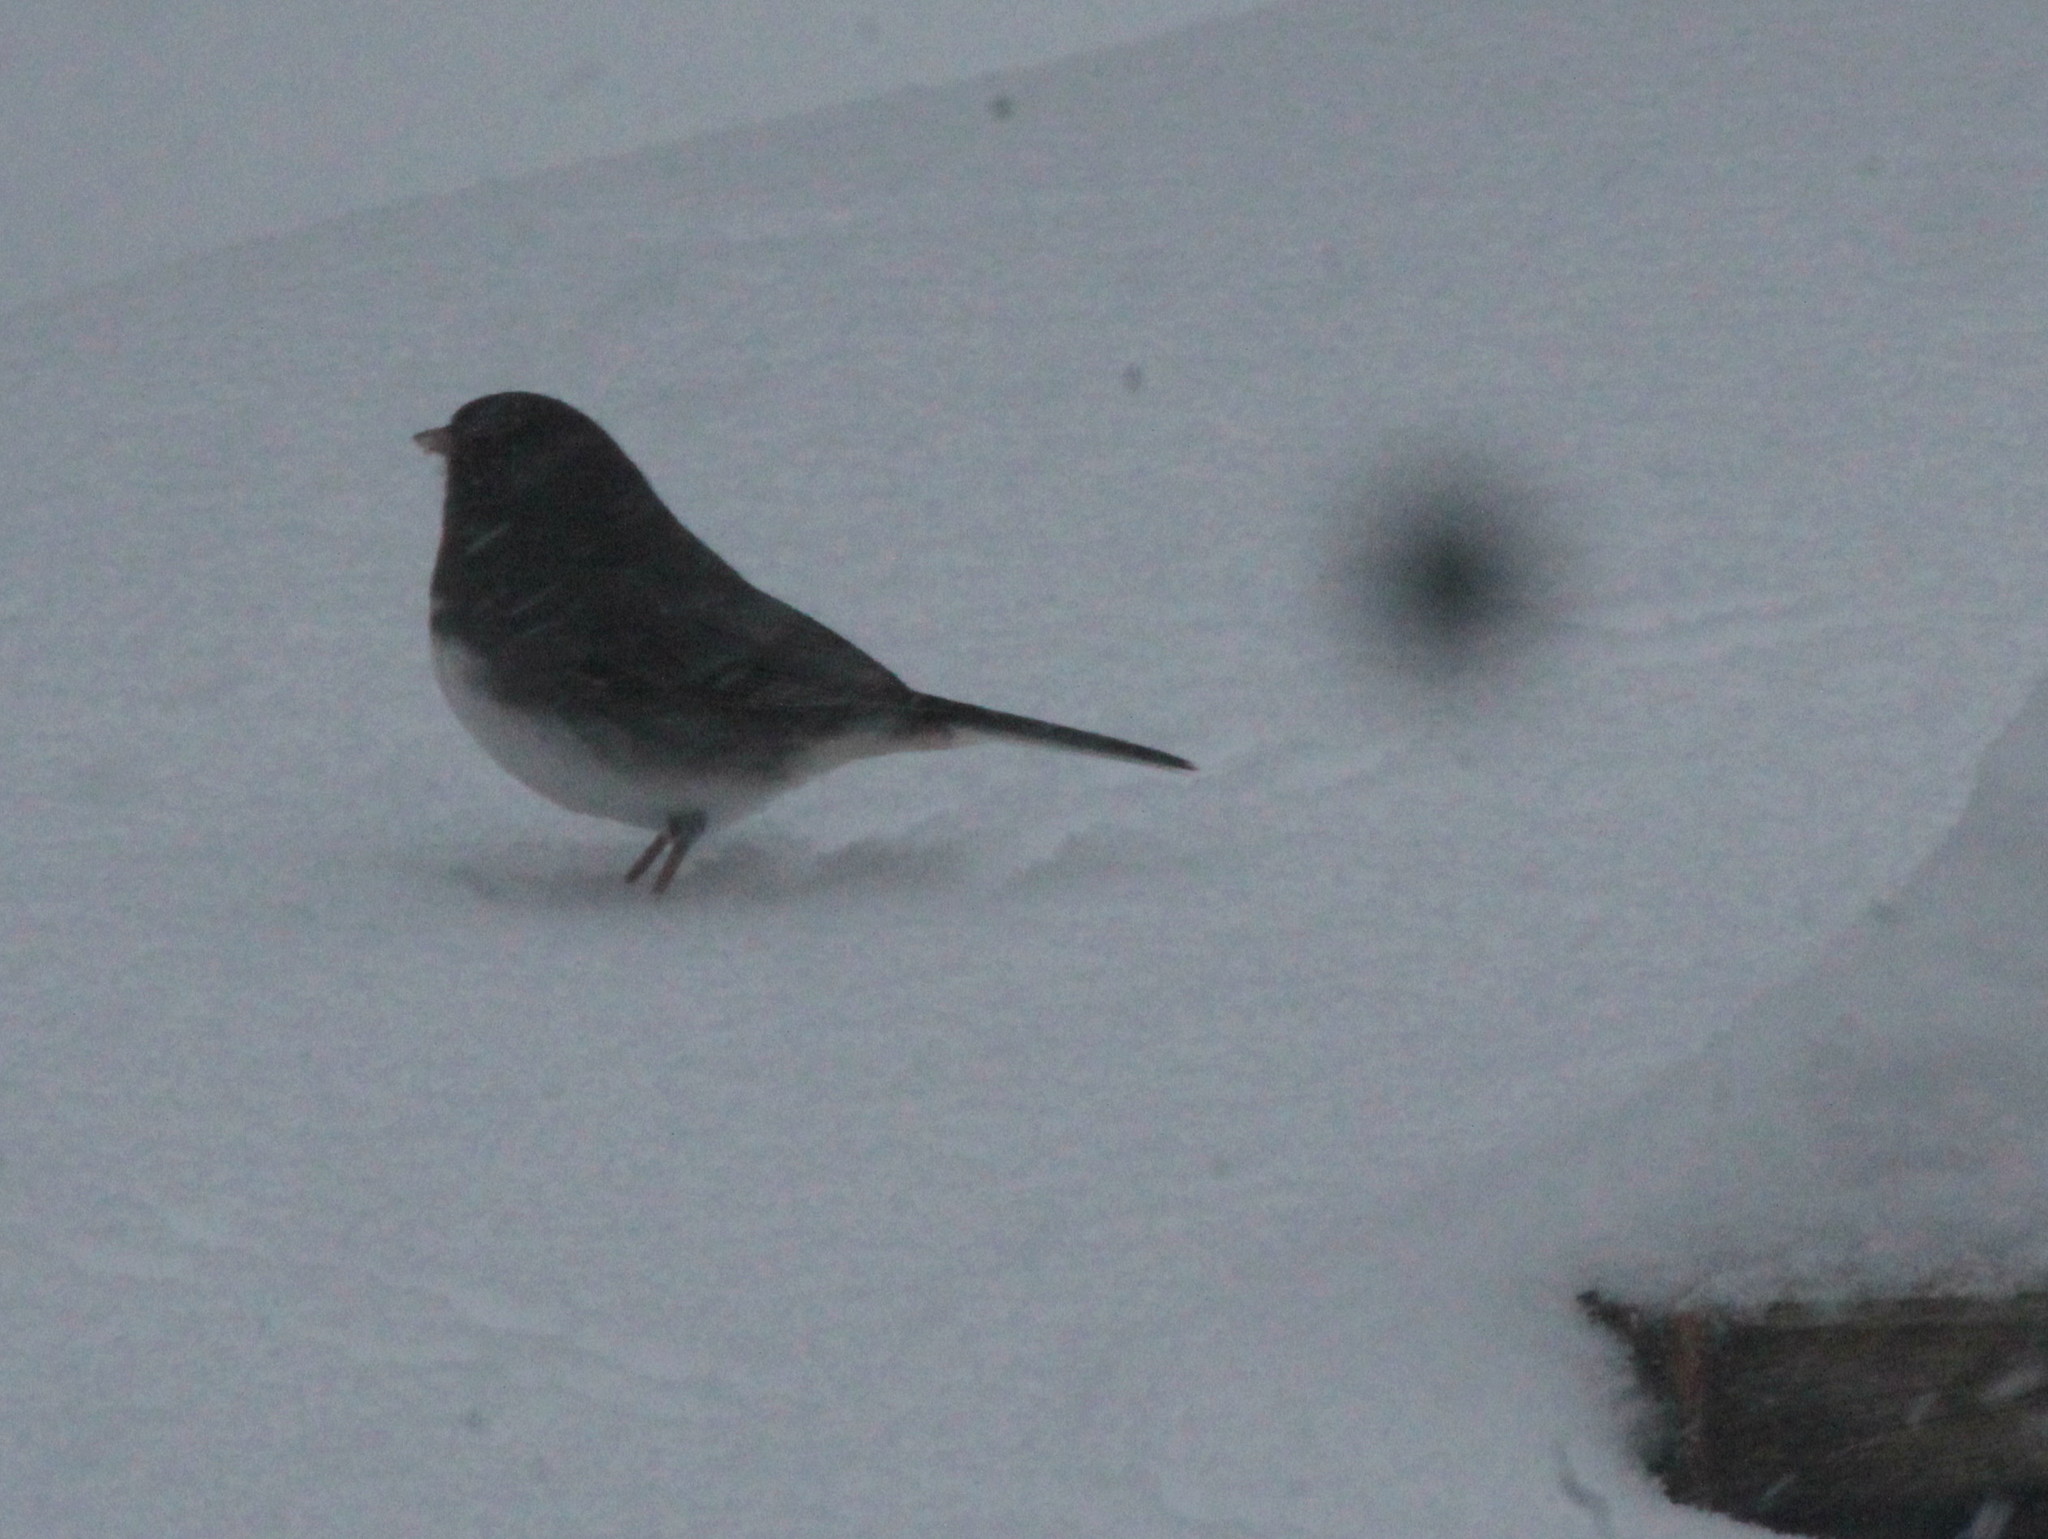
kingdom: Animalia
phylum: Chordata
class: Aves
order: Passeriformes
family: Passerellidae
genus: Junco
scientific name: Junco hyemalis
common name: Dark-eyed junco
